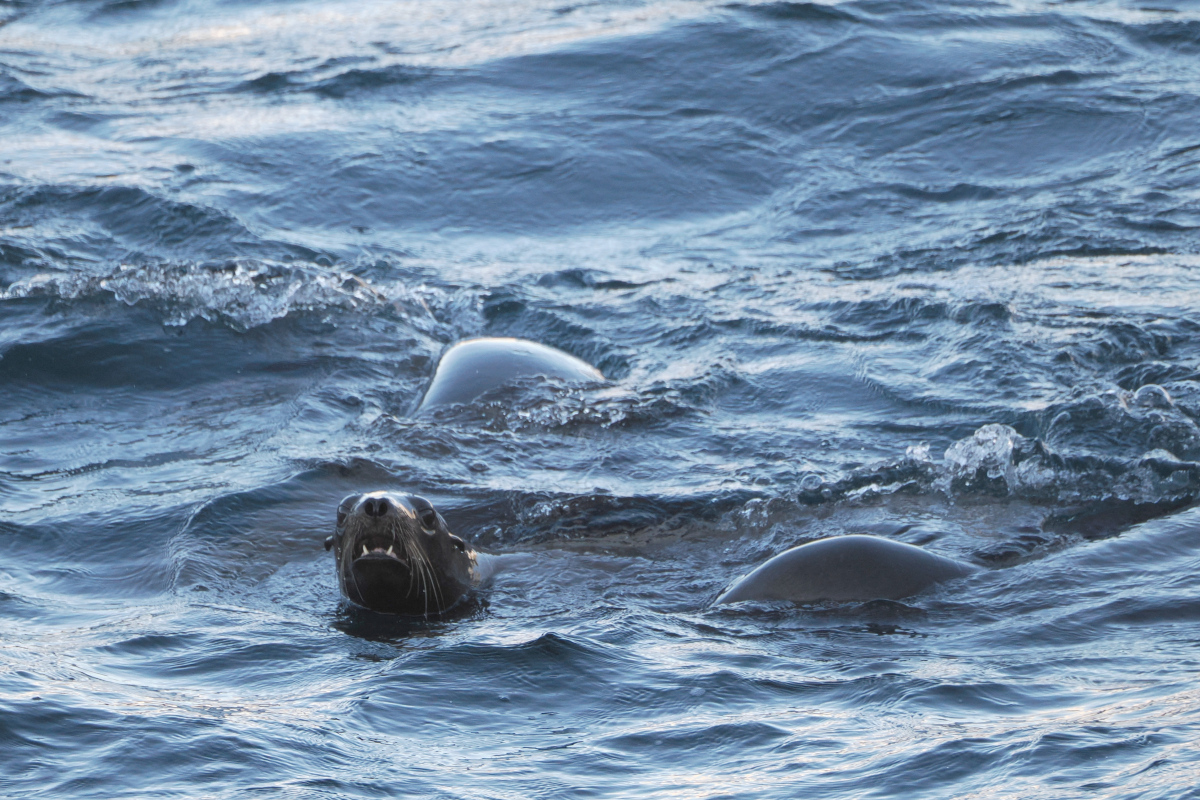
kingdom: Animalia
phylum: Chordata
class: Mammalia
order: Carnivora
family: Otariidae
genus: Zalophus
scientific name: Zalophus californianus
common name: California sea lion
